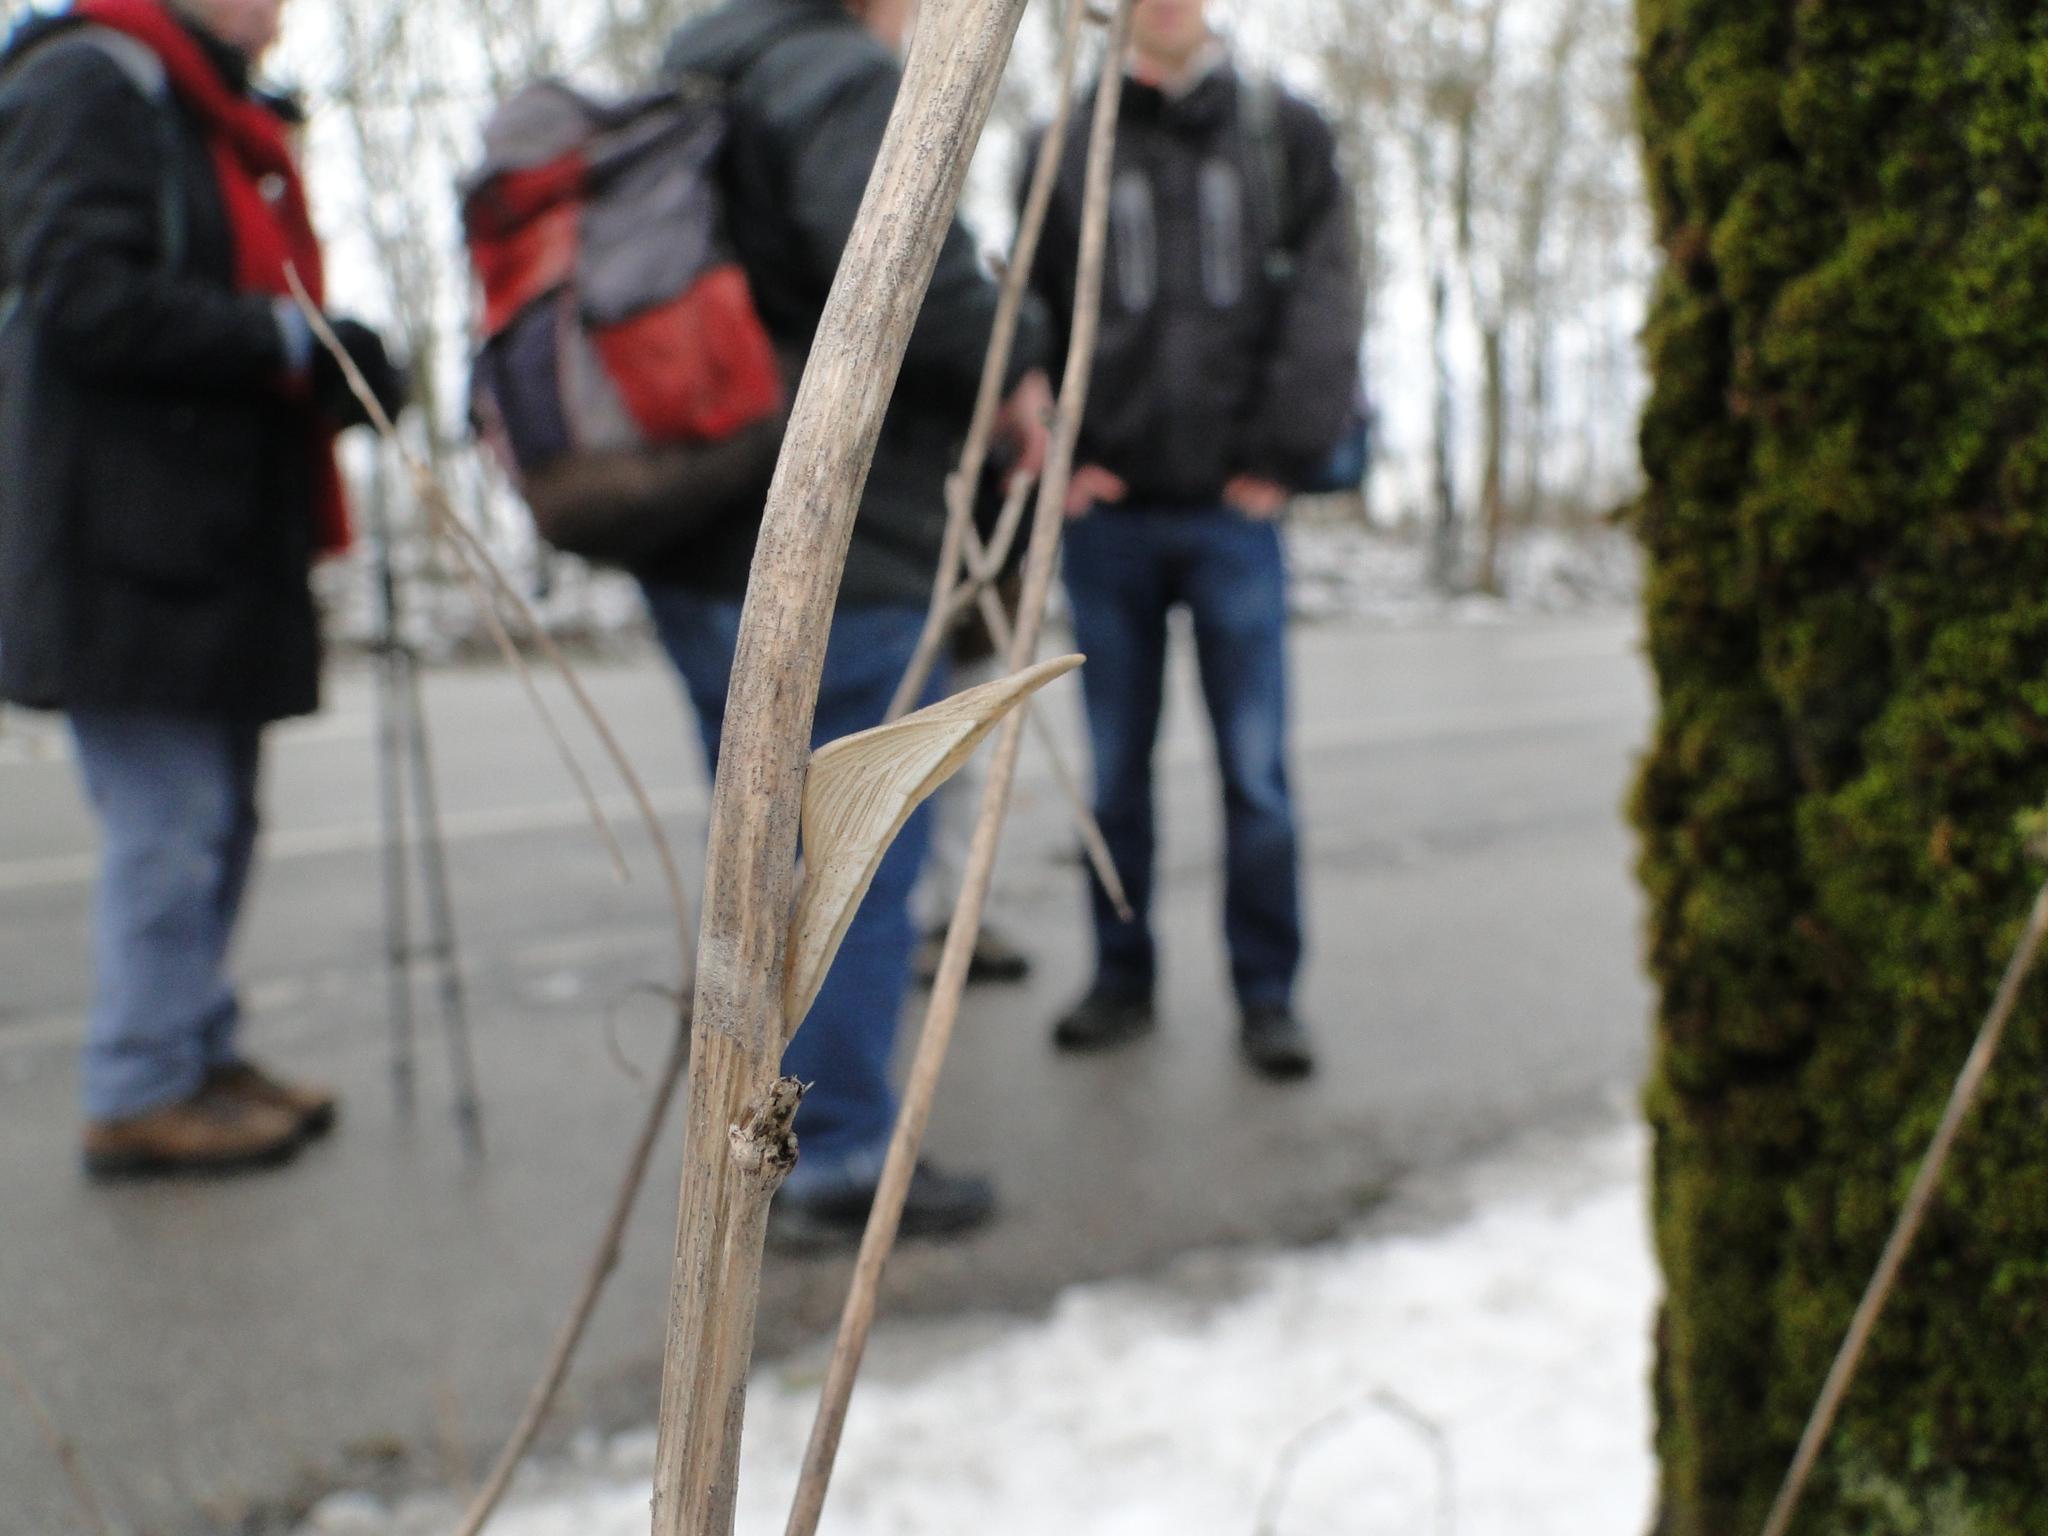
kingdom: Animalia
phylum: Arthropoda
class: Insecta
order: Lepidoptera
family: Pieridae
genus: Anthocharis
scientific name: Anthocharis cardamines
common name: Orange-tip
